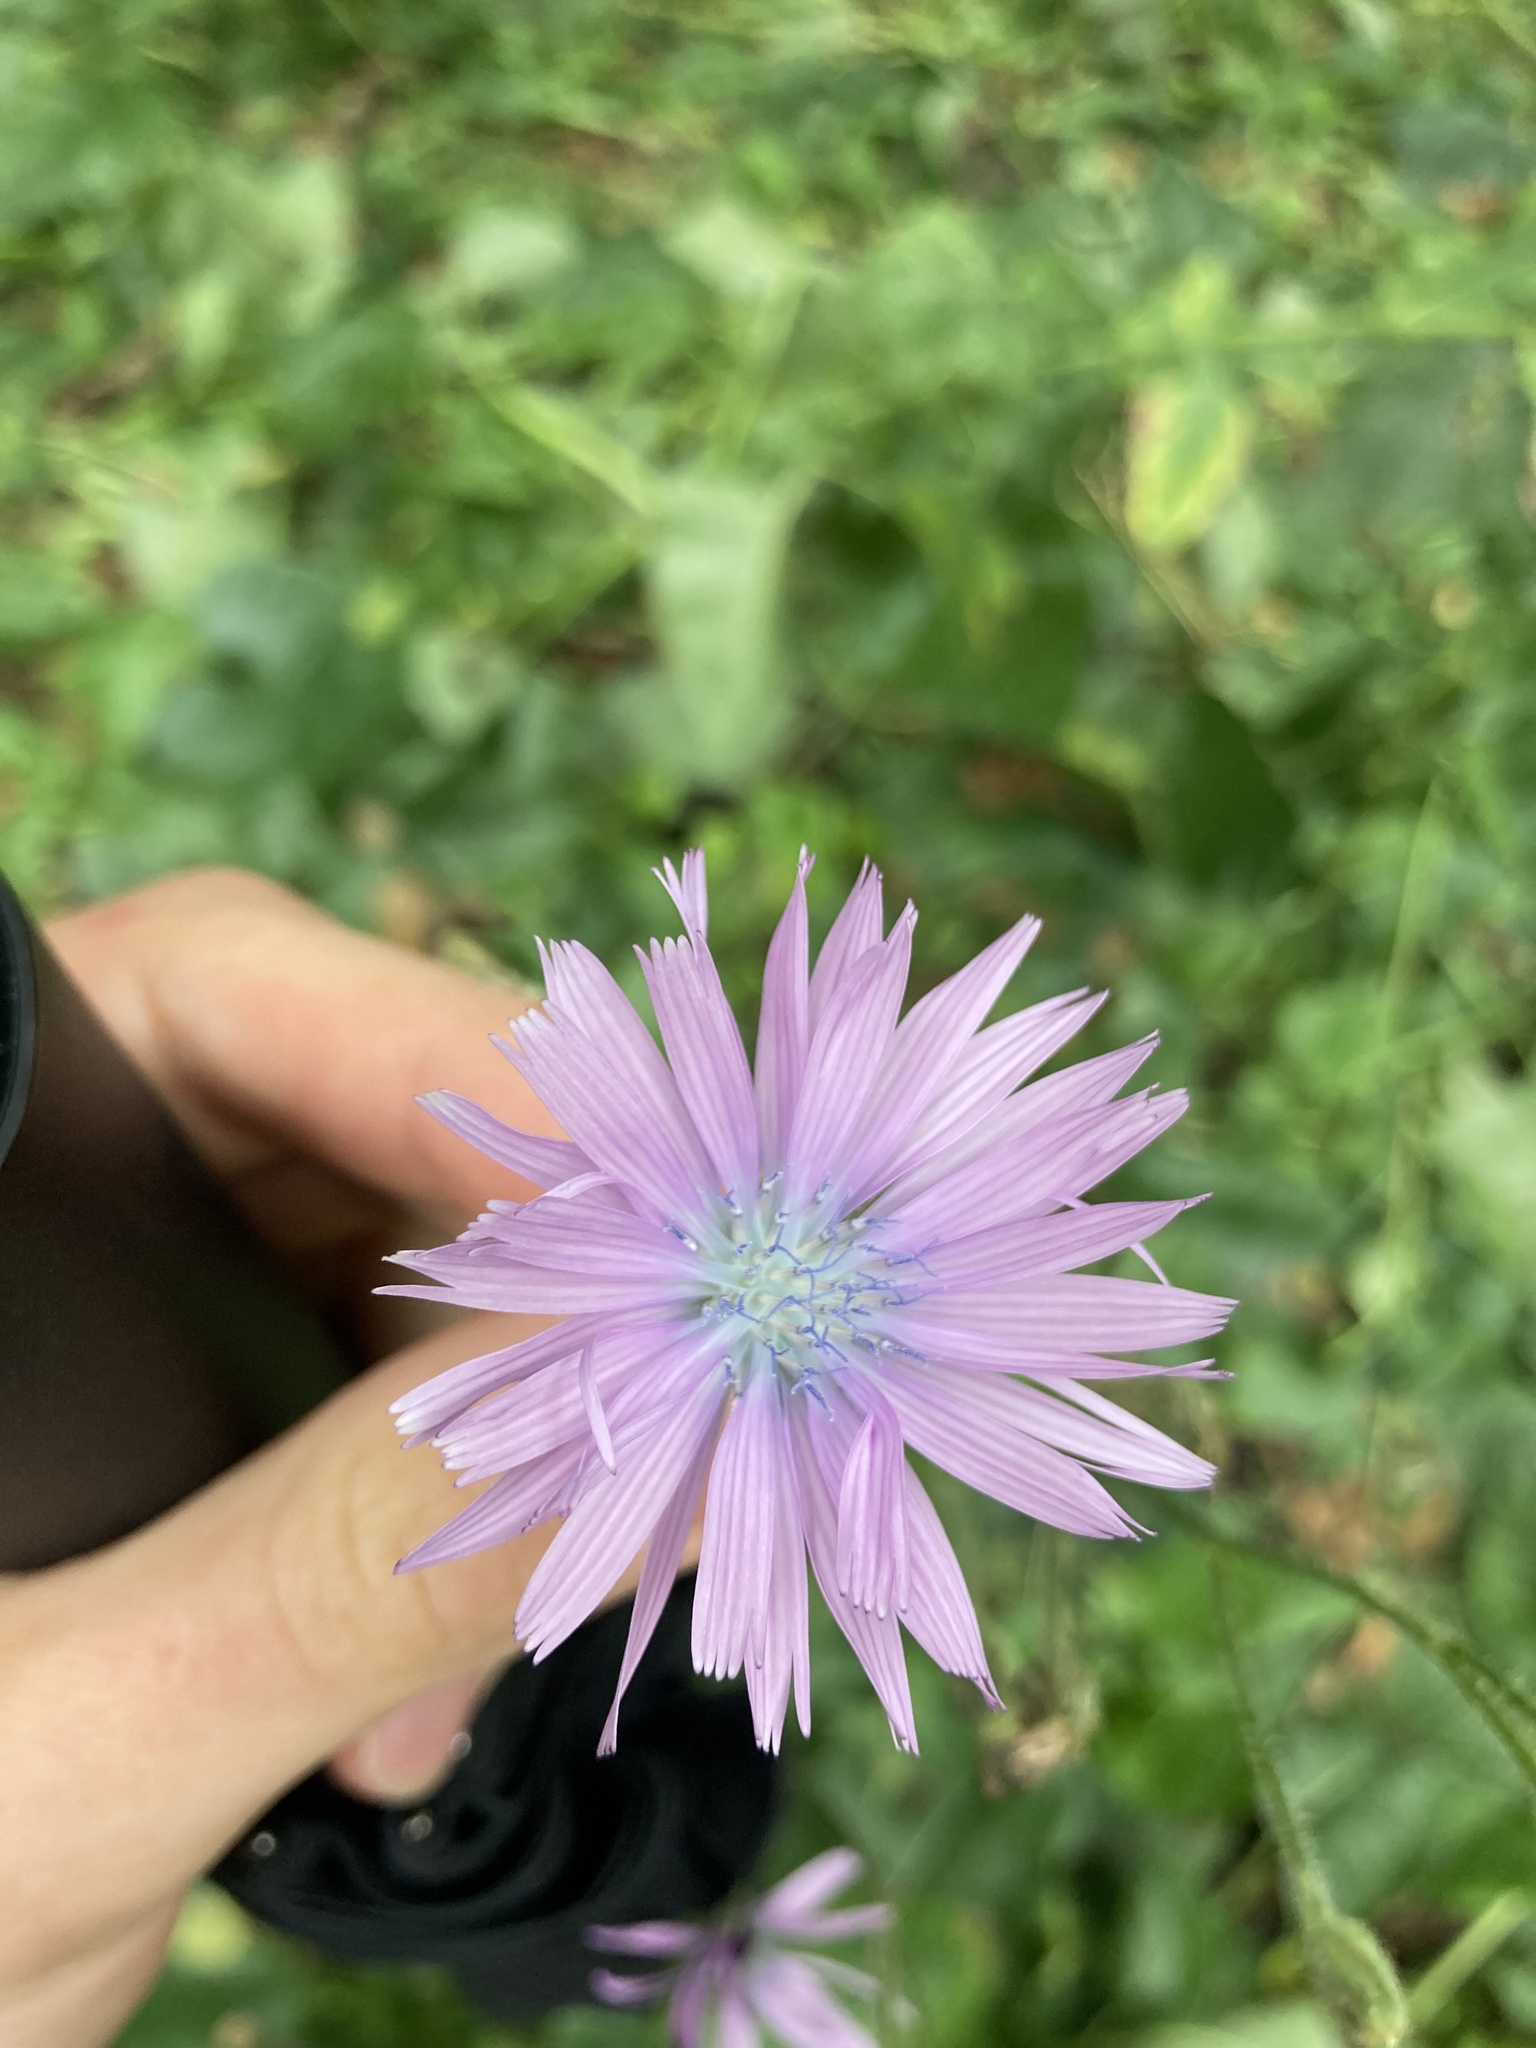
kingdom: Plantae
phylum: Tracheophyta
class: Magnoliopsida
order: Asterales
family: Asteraceae
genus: Lactuca
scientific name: Lactuca macrophylla
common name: Common blue-sow-thistle
